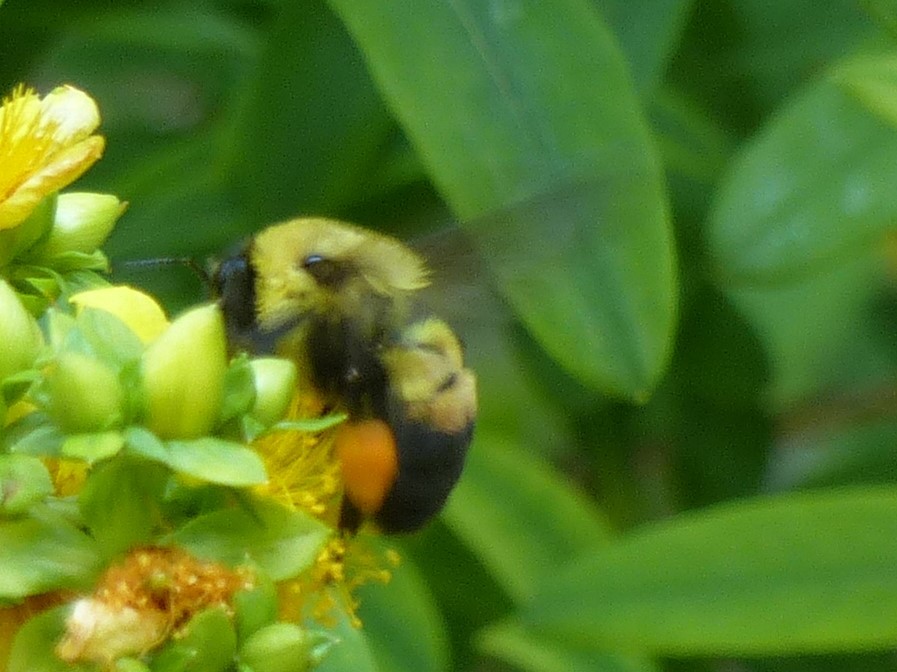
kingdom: Animalia
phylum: Arthropoda
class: Insecta
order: Hymenoptera
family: Apidae
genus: Bombus
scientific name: Bombus griseocollis
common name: Brown-belted bumble bee
